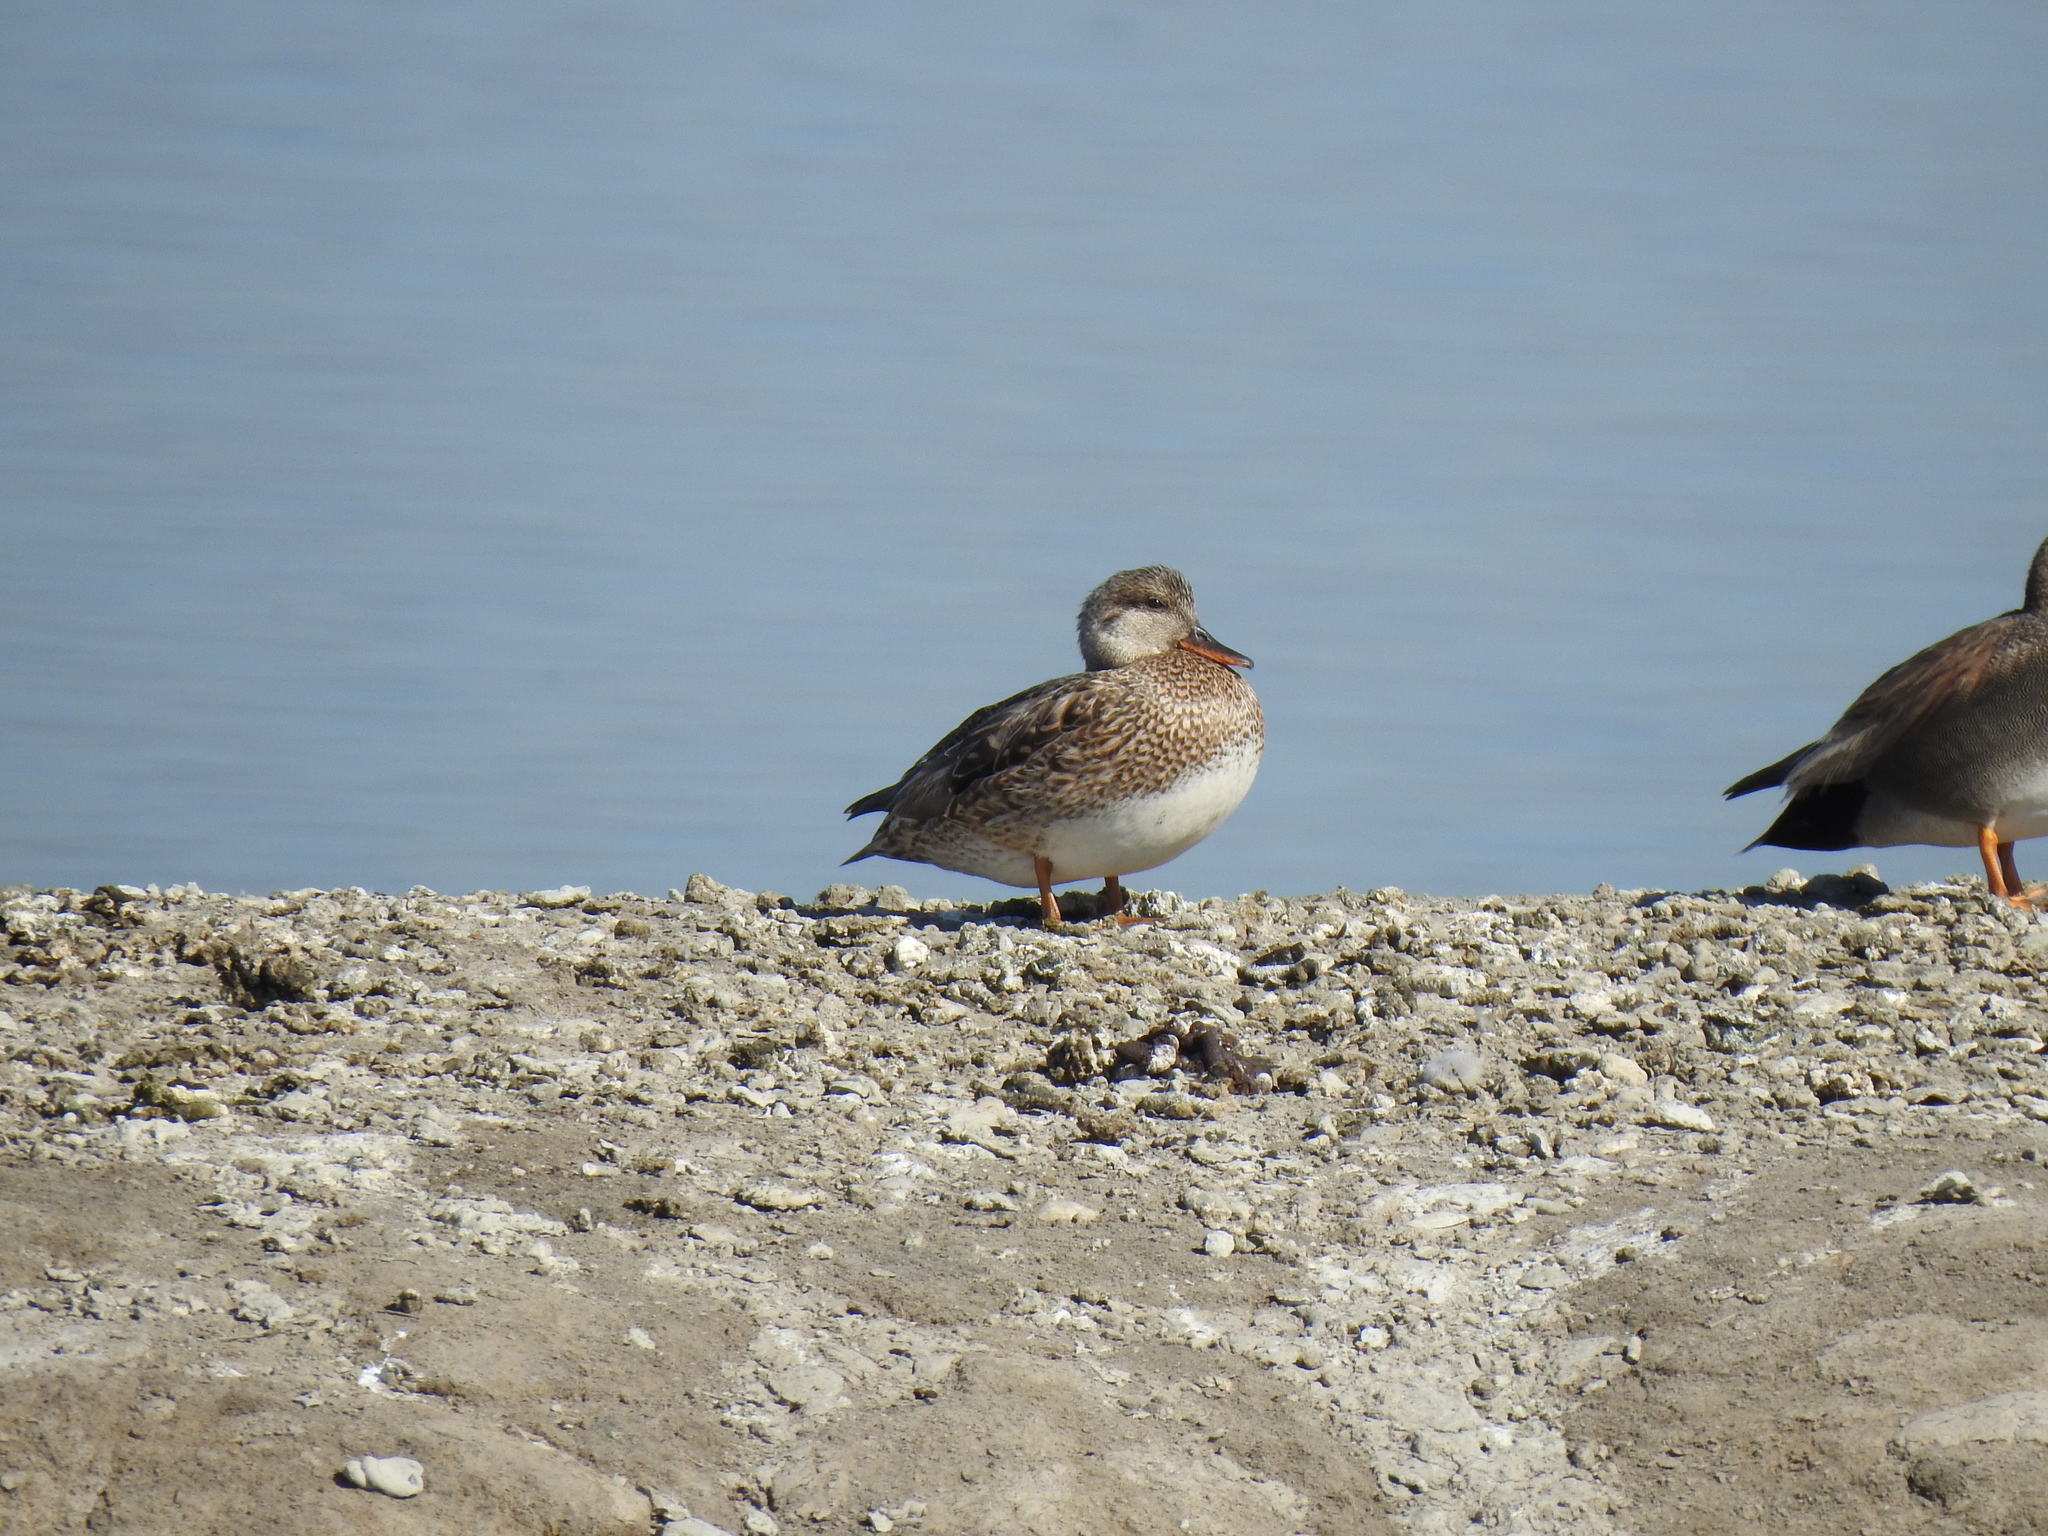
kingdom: Animalia
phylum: Chordata
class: Aves
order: Anseriformes
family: Anatidae
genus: Mareca
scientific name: Mareca strepera
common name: Gadwall
